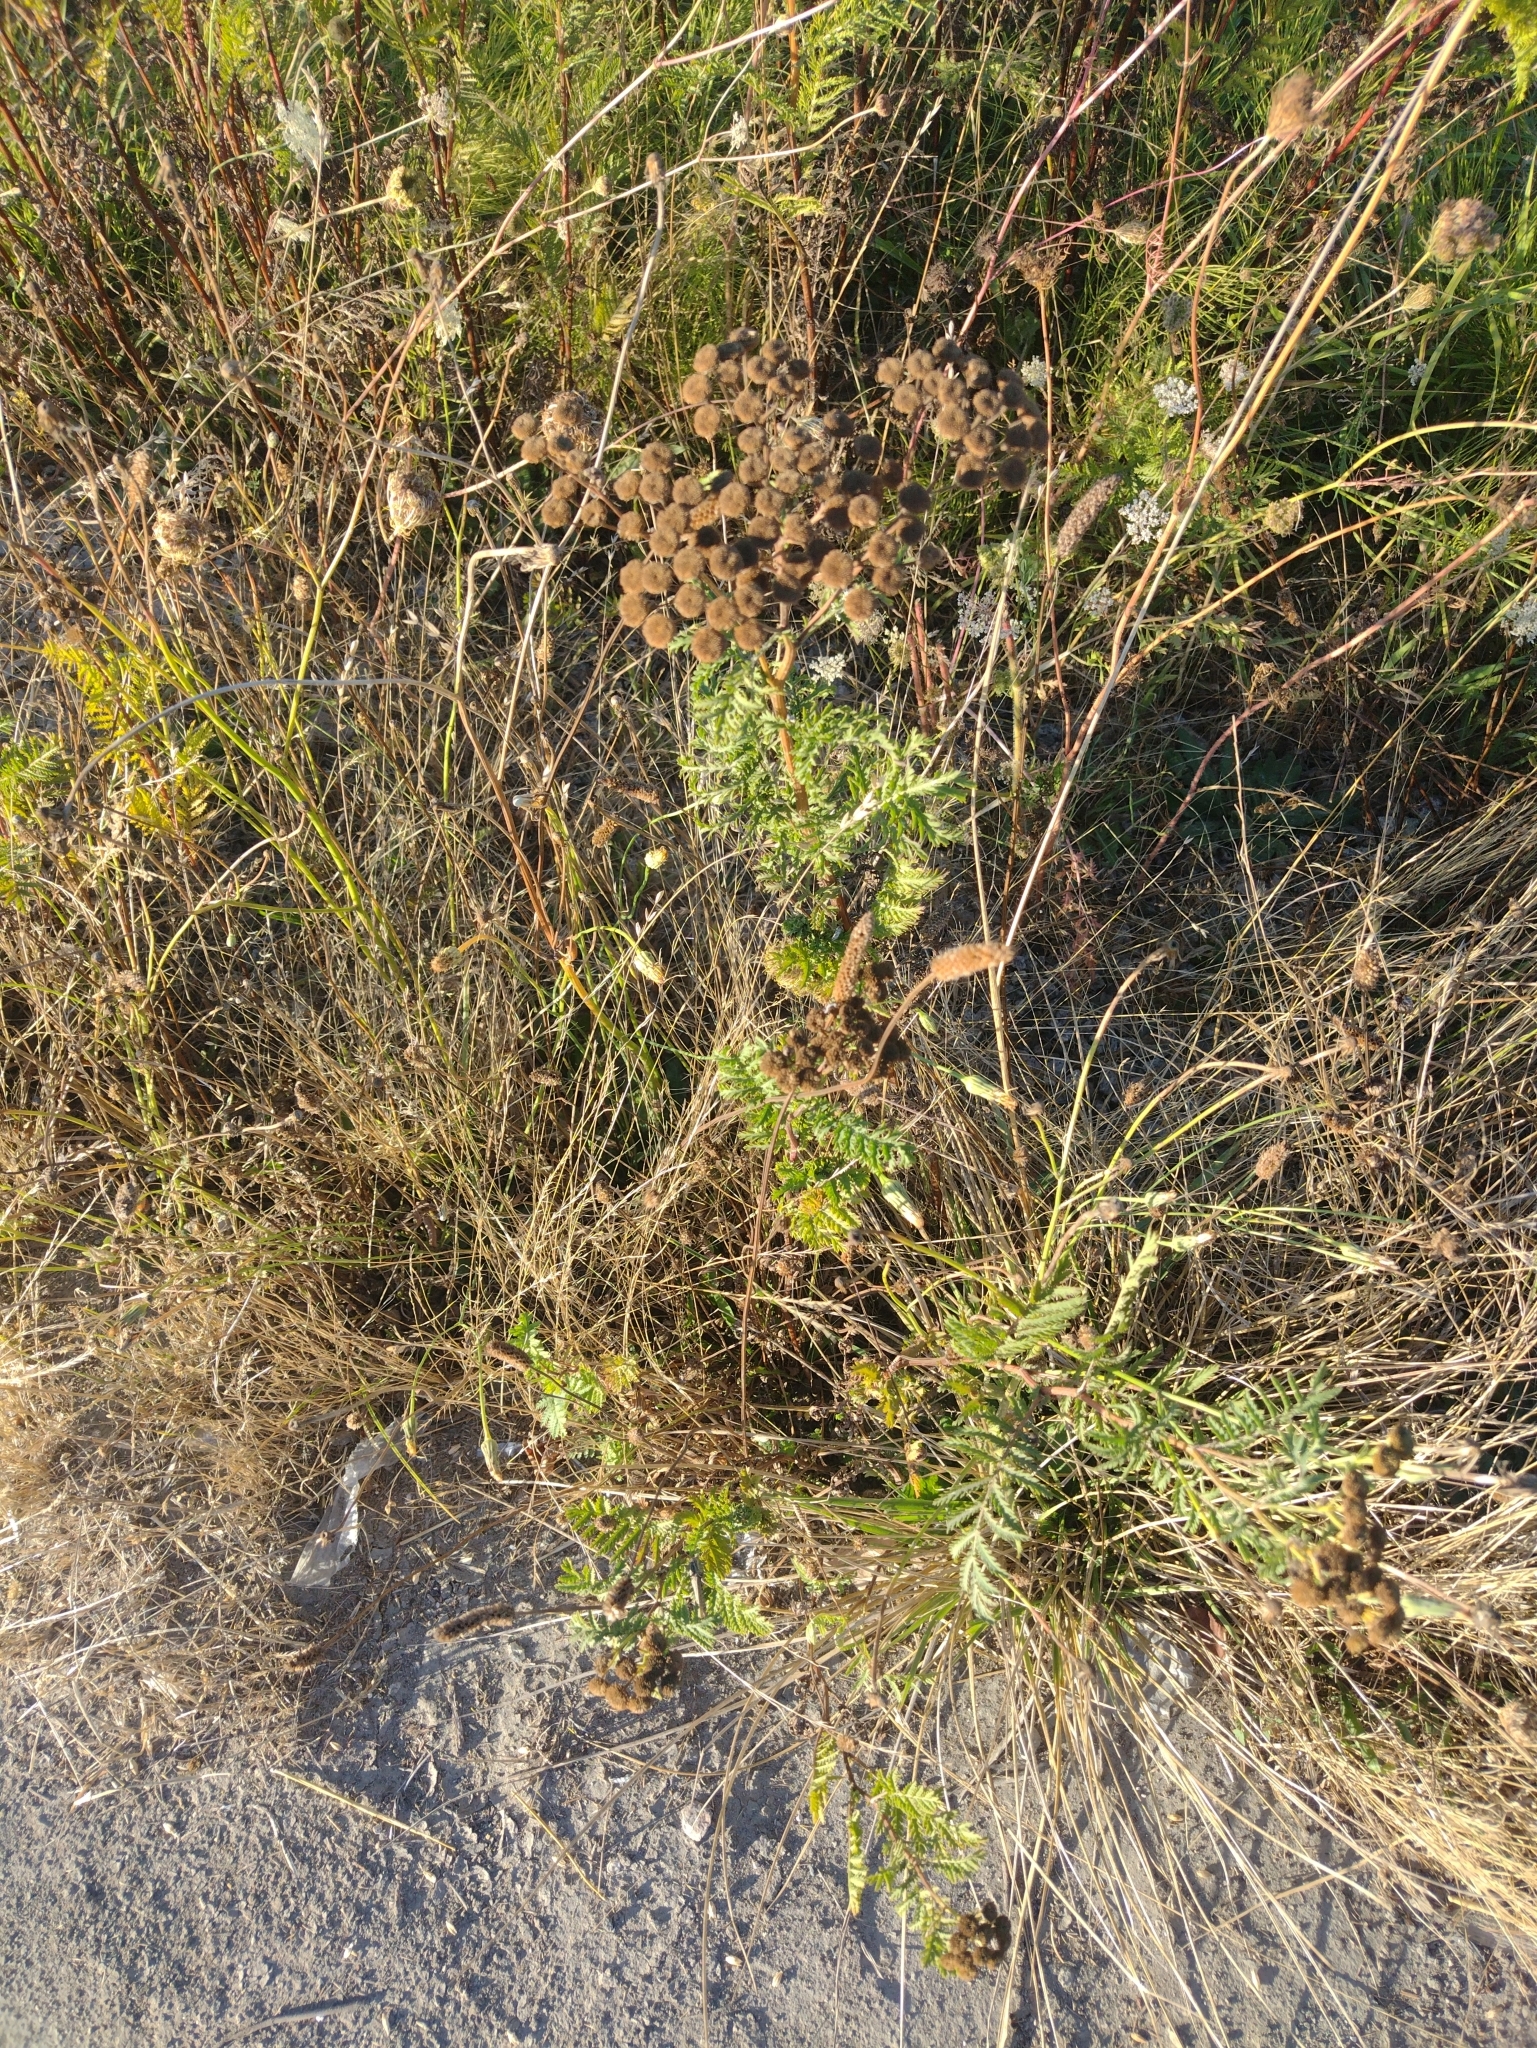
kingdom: Plantae
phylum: Tracheophyta
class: Magnoliopsida
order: Asterales
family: Asteraceae
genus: Tanacetum
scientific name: Tanacetum vulgare
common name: Common tansy
